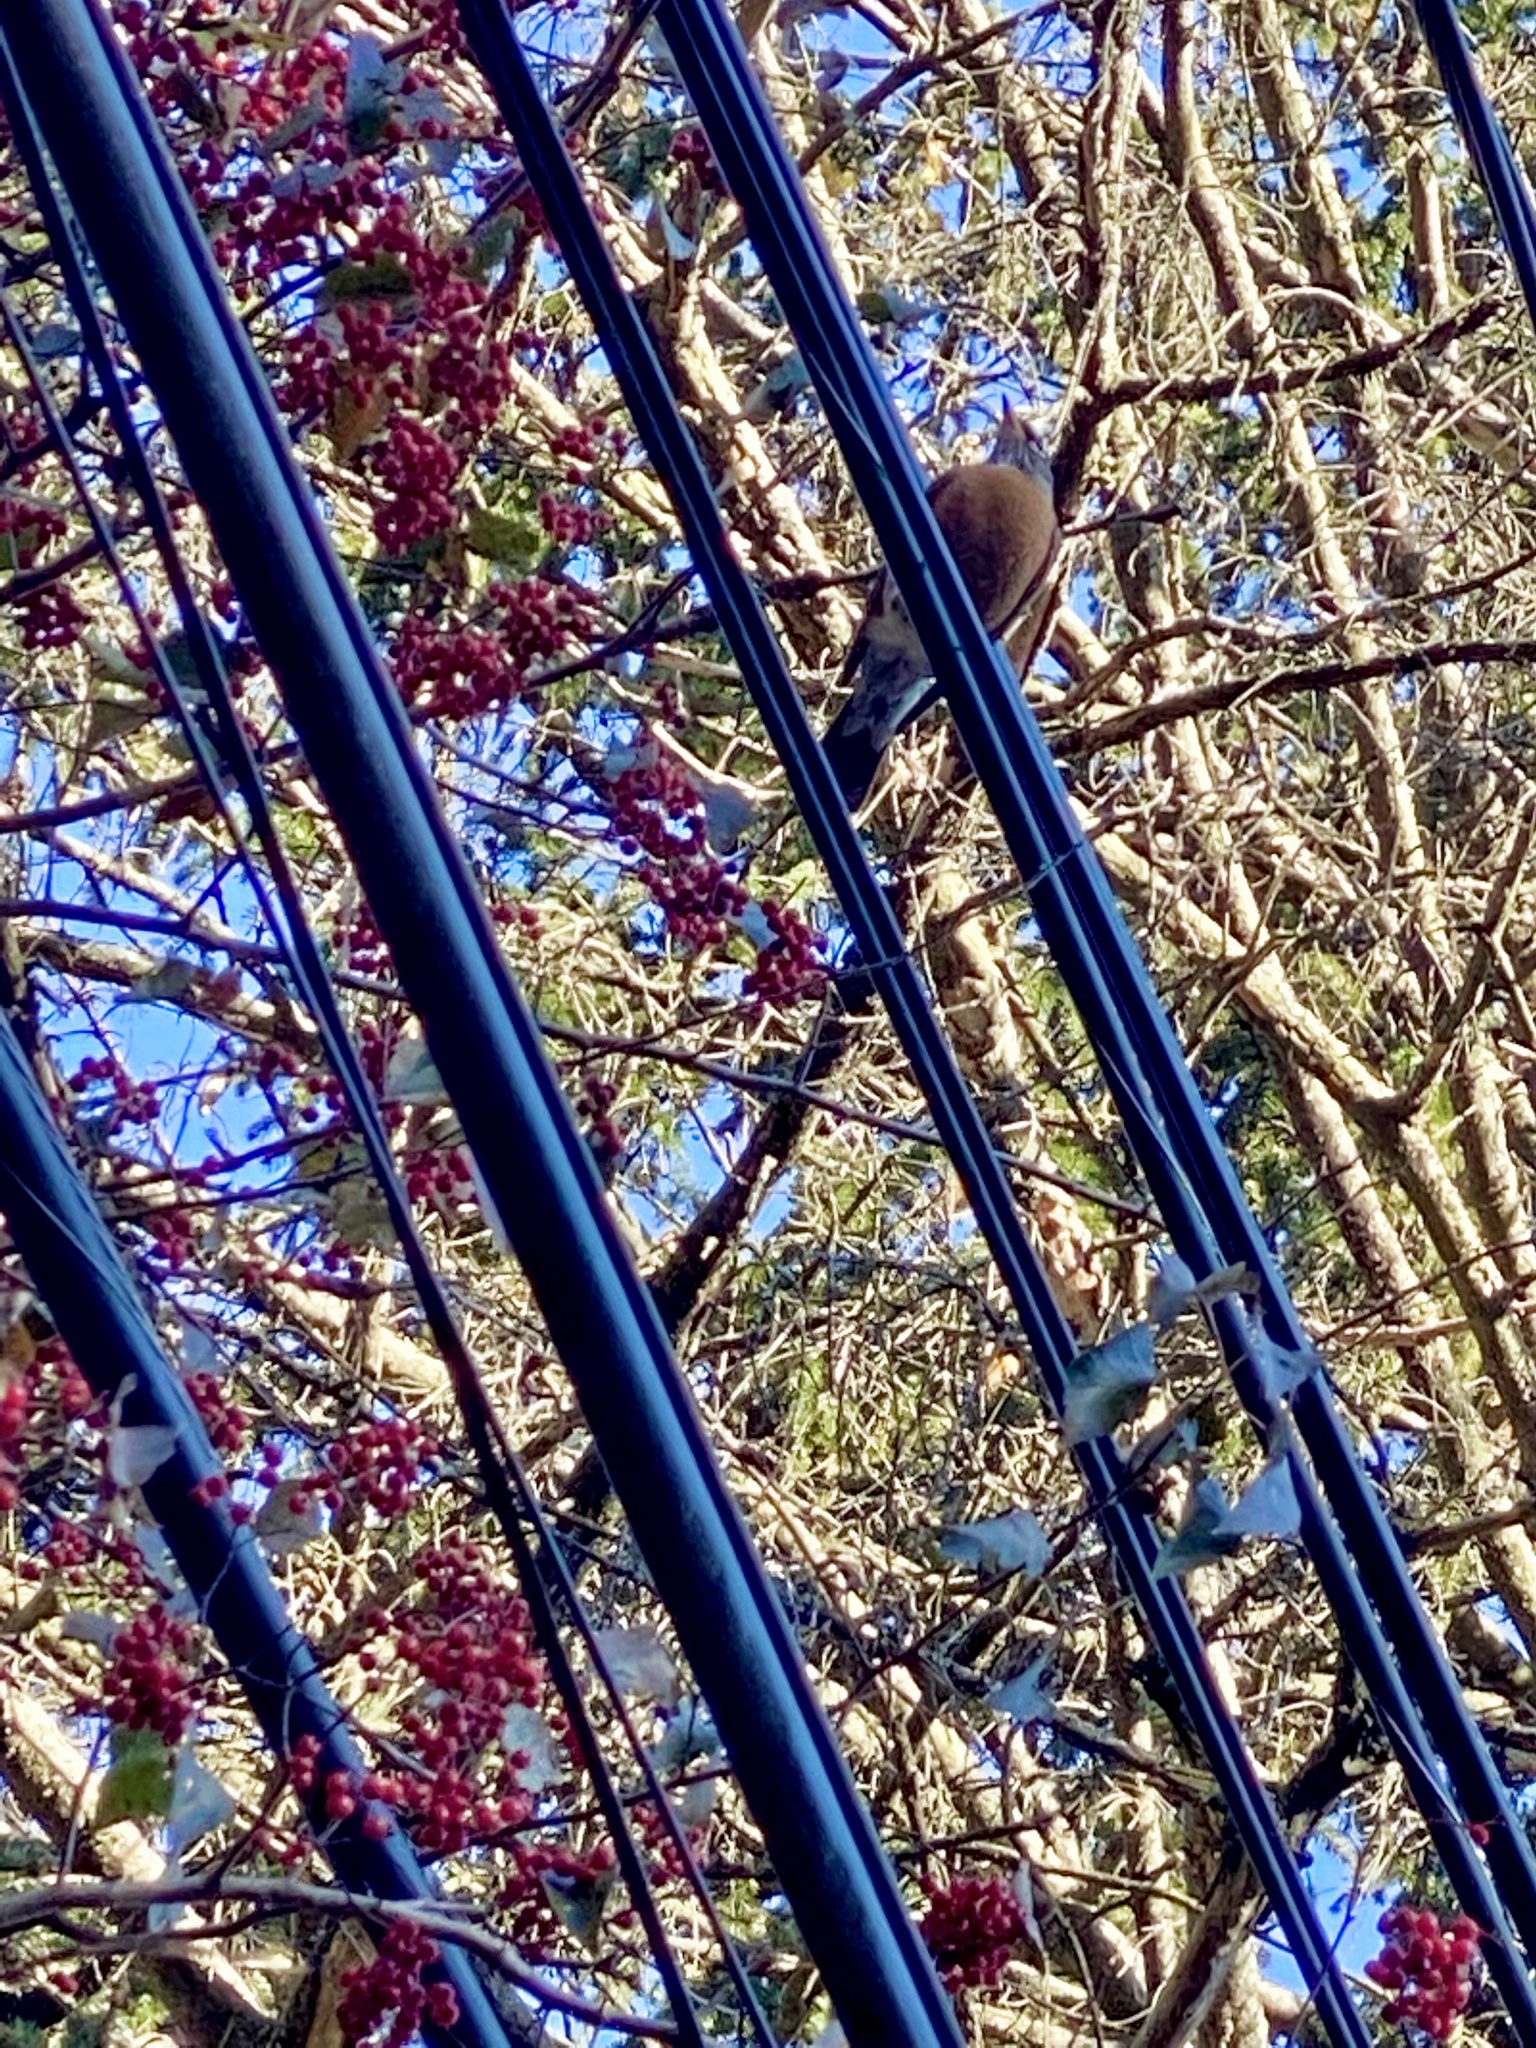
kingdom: Animalia
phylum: Chordata
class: Aves
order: Passeriformes
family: Turdidae
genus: Turdus
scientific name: Turdus migratorius
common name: American robin
